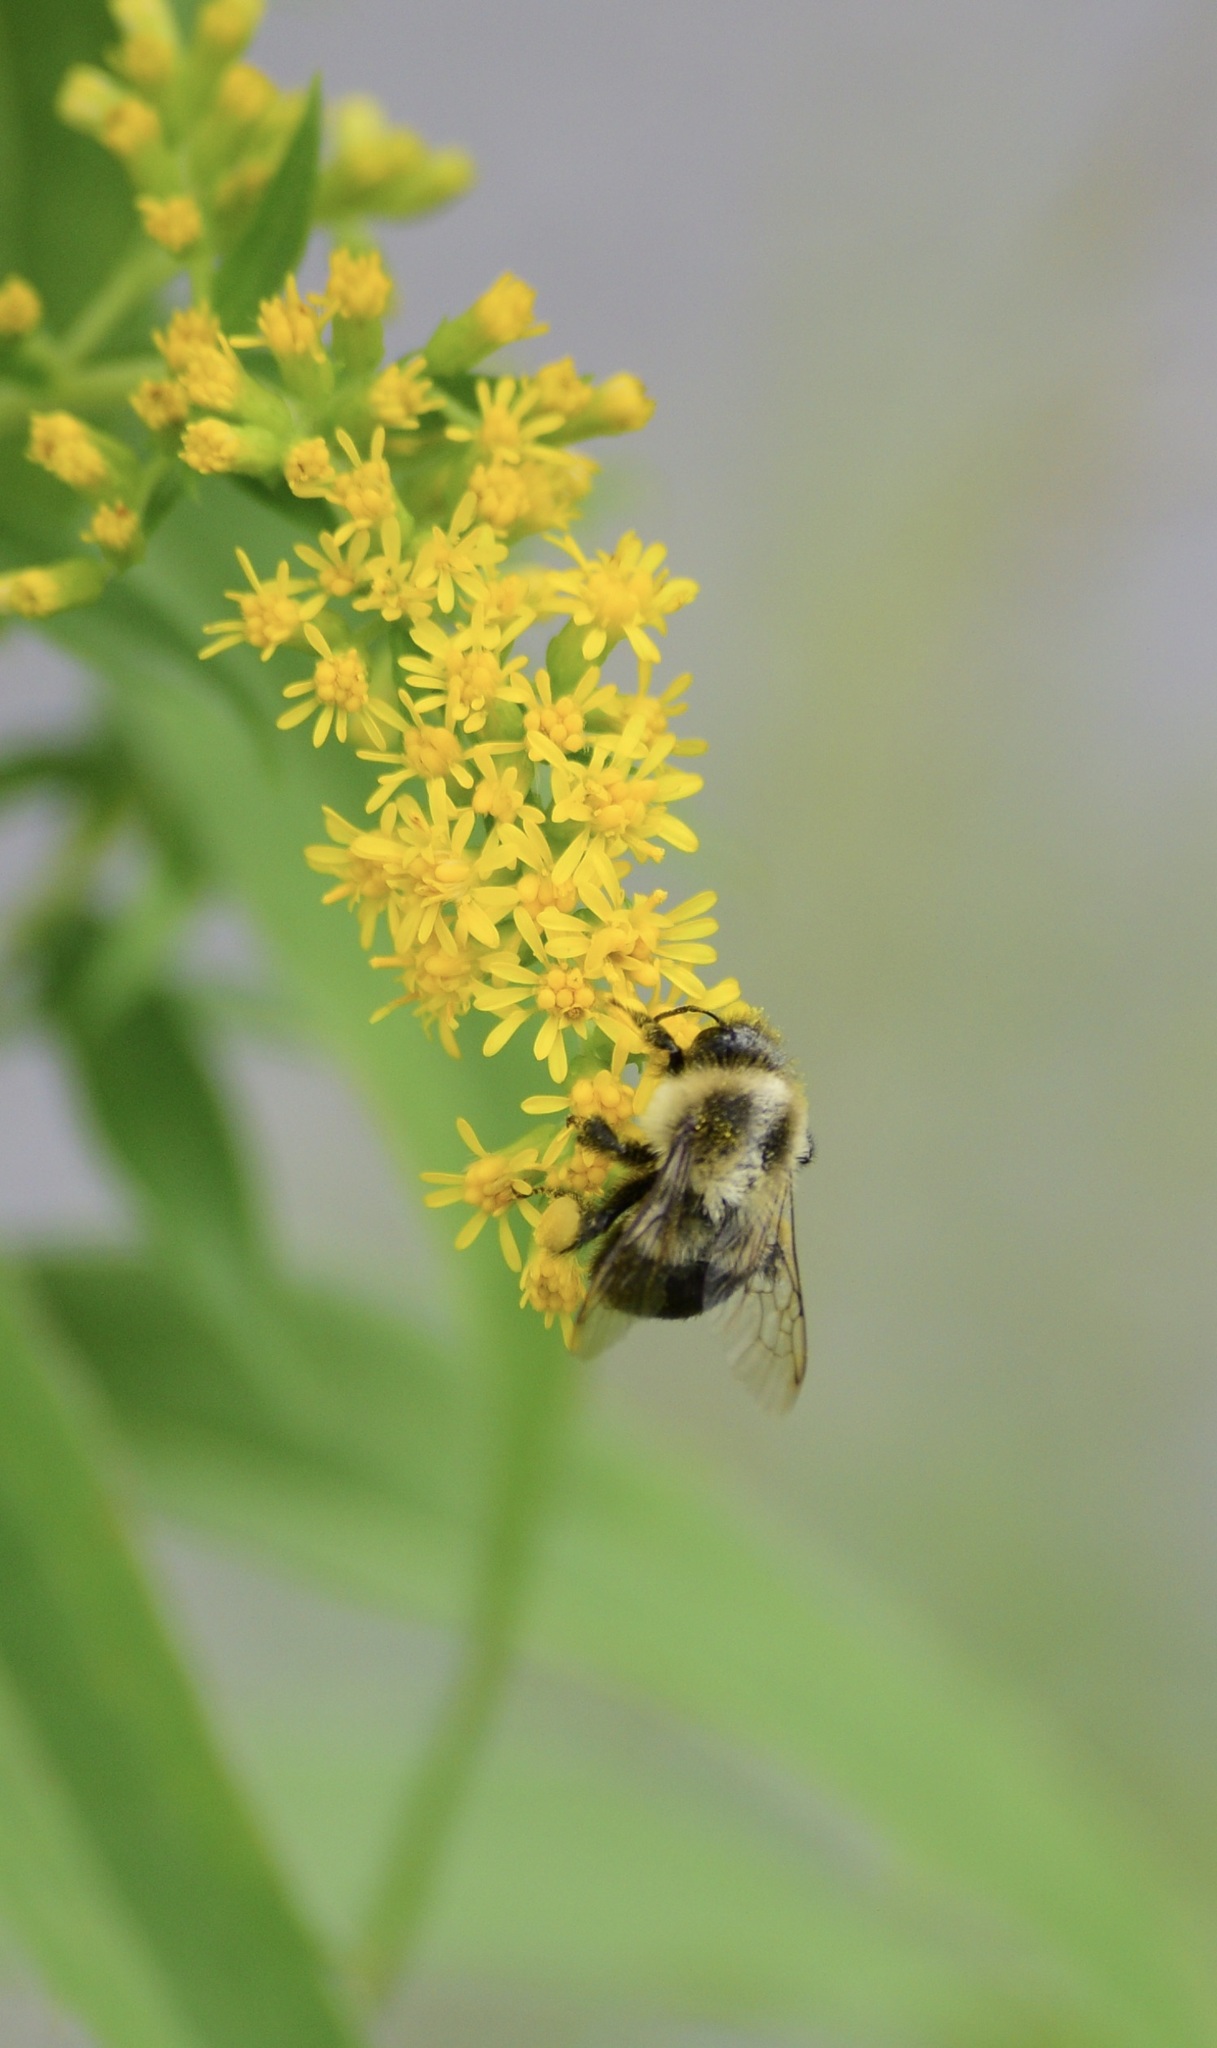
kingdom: Animalia
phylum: Arthropoda
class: Insecta
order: Hymenoptera
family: Apidae
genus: Bombus
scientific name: Bombus impatiens
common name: Common eastern bumble bee
